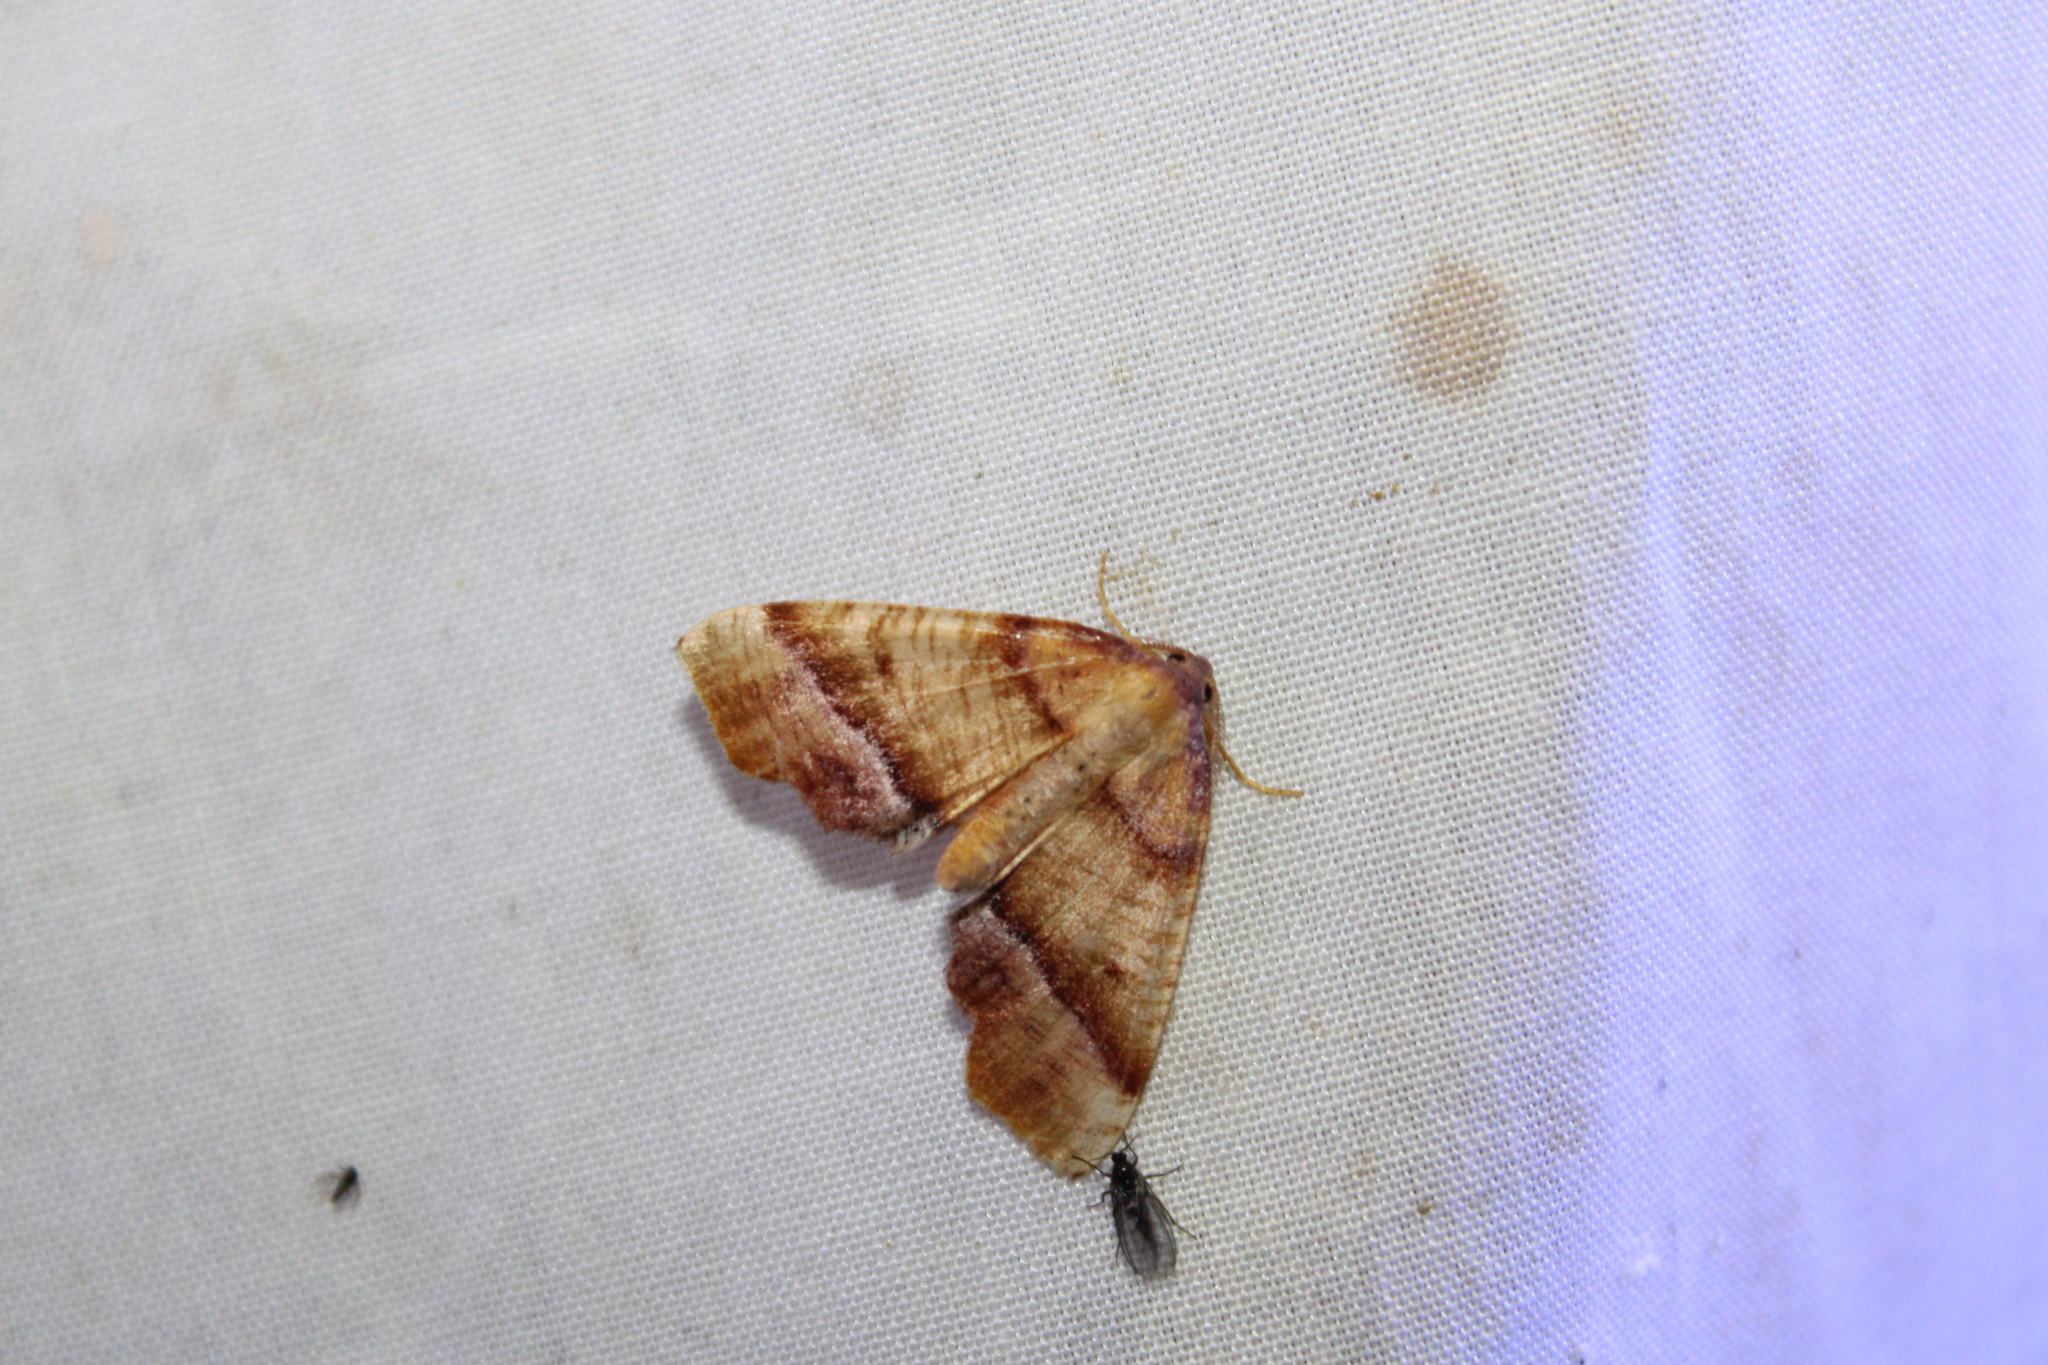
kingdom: Animalia
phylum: Arthropoda
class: Insecta
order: Lepidoptera
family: Geometridae
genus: Plagodis
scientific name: Plagodis phlogosaria
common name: Straight-lined plagodis
